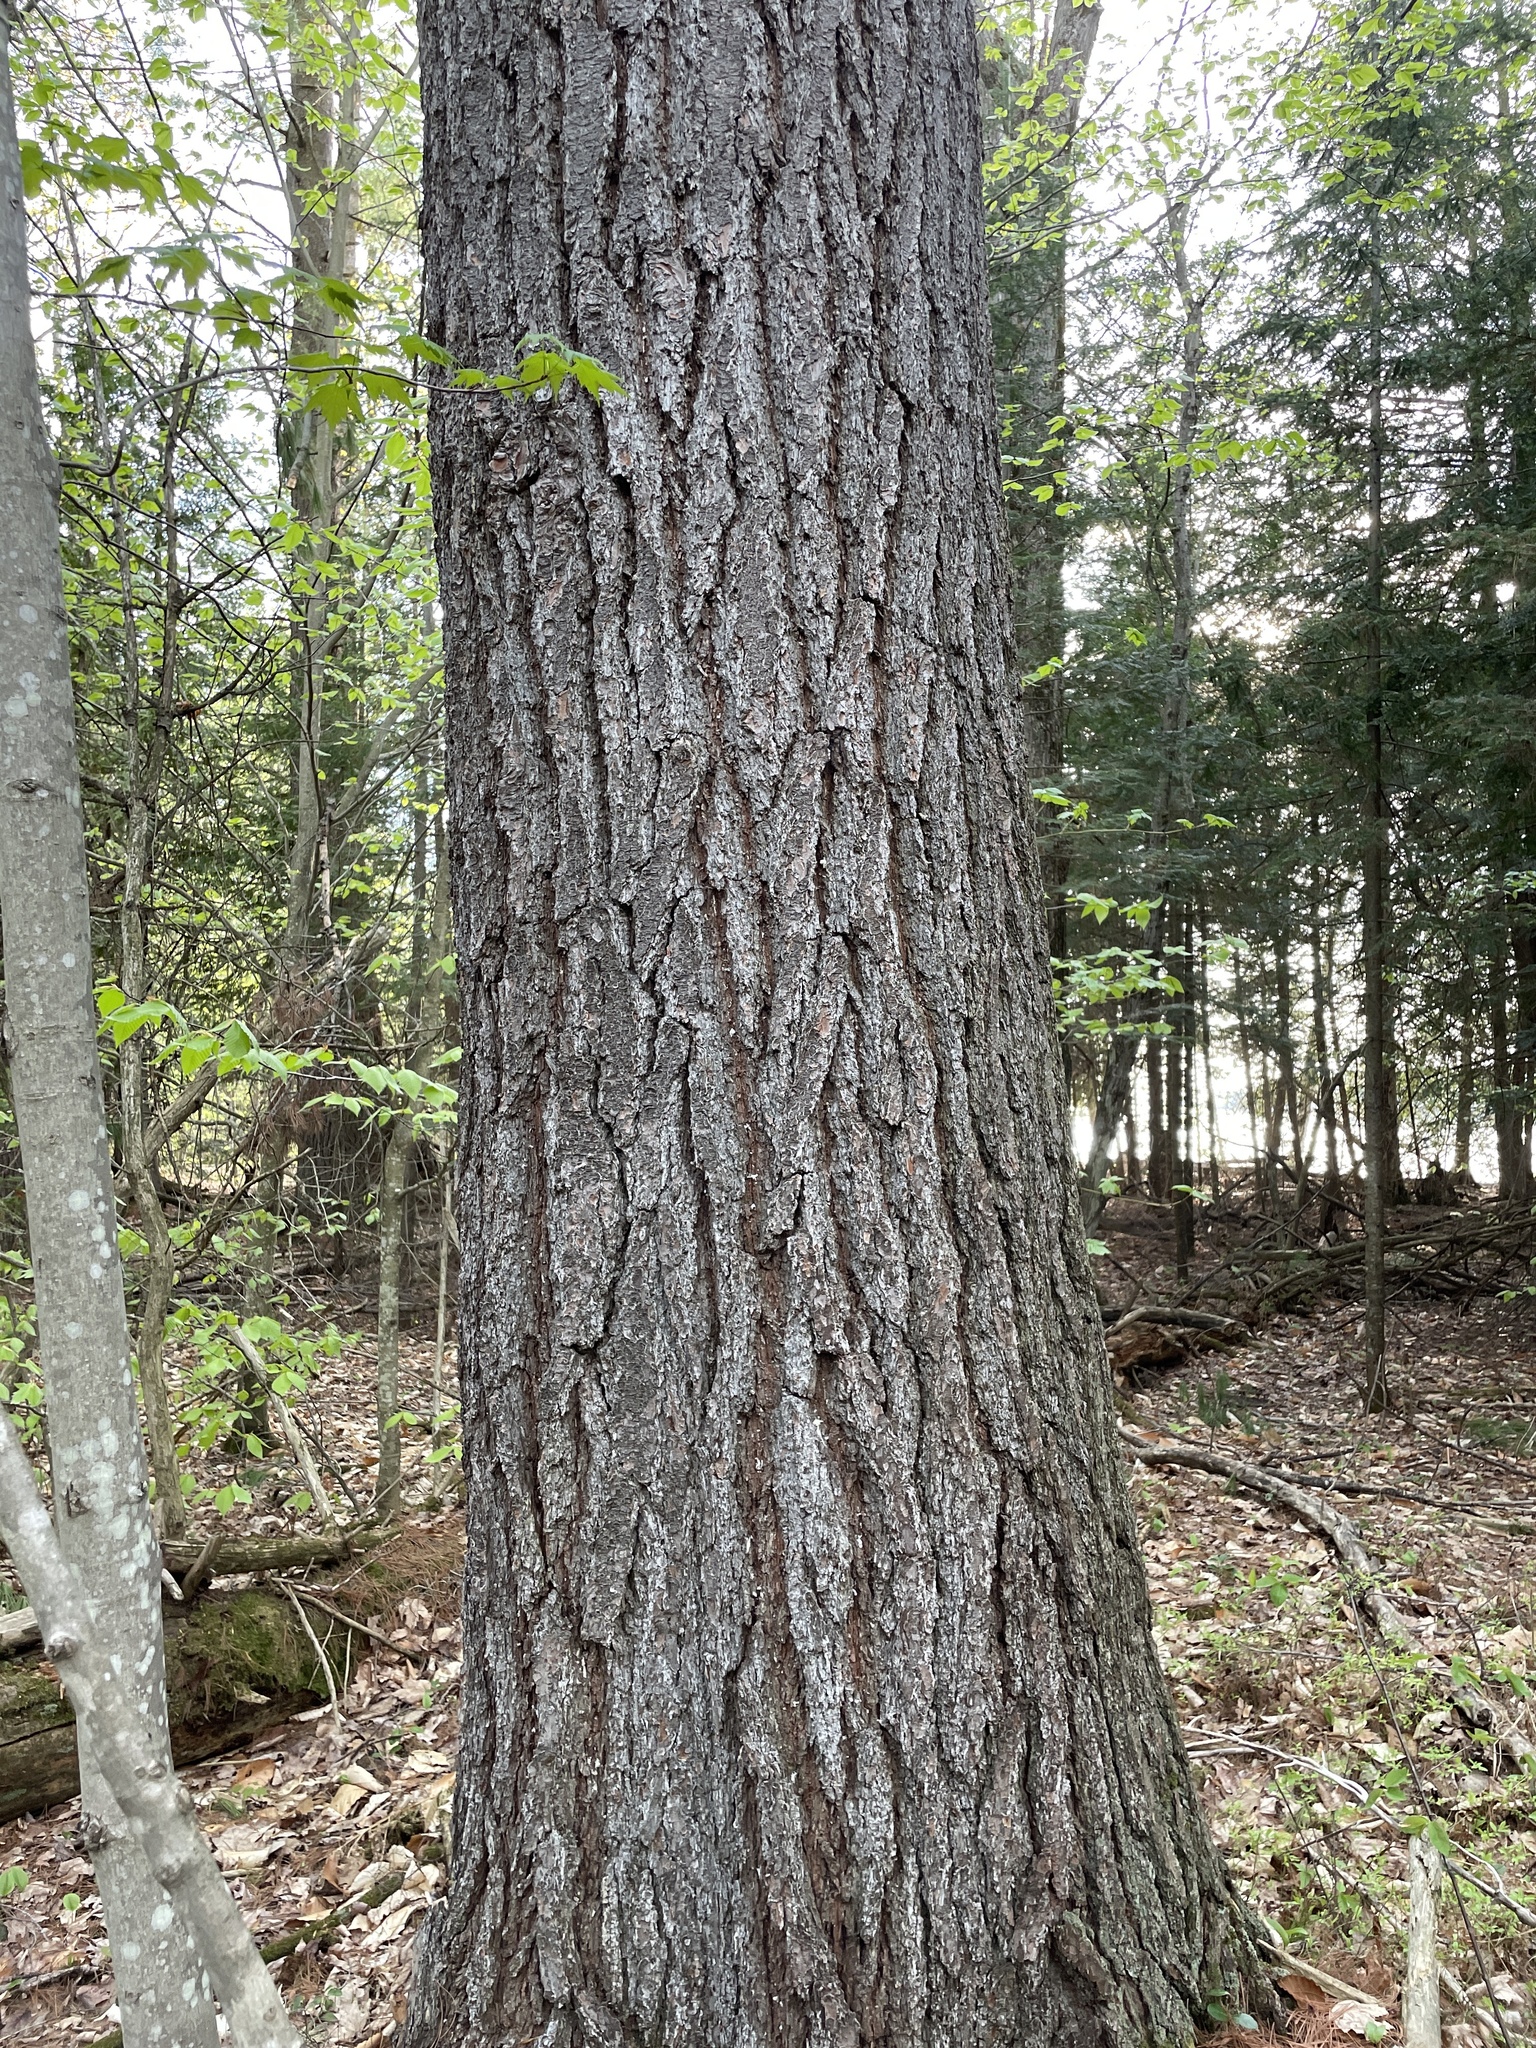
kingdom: Plantae
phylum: Tracheophyta
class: Pinopsida
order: Pinales
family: Pinaceae
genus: Pinus
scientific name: Pinus strobus
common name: Weymouth pine
